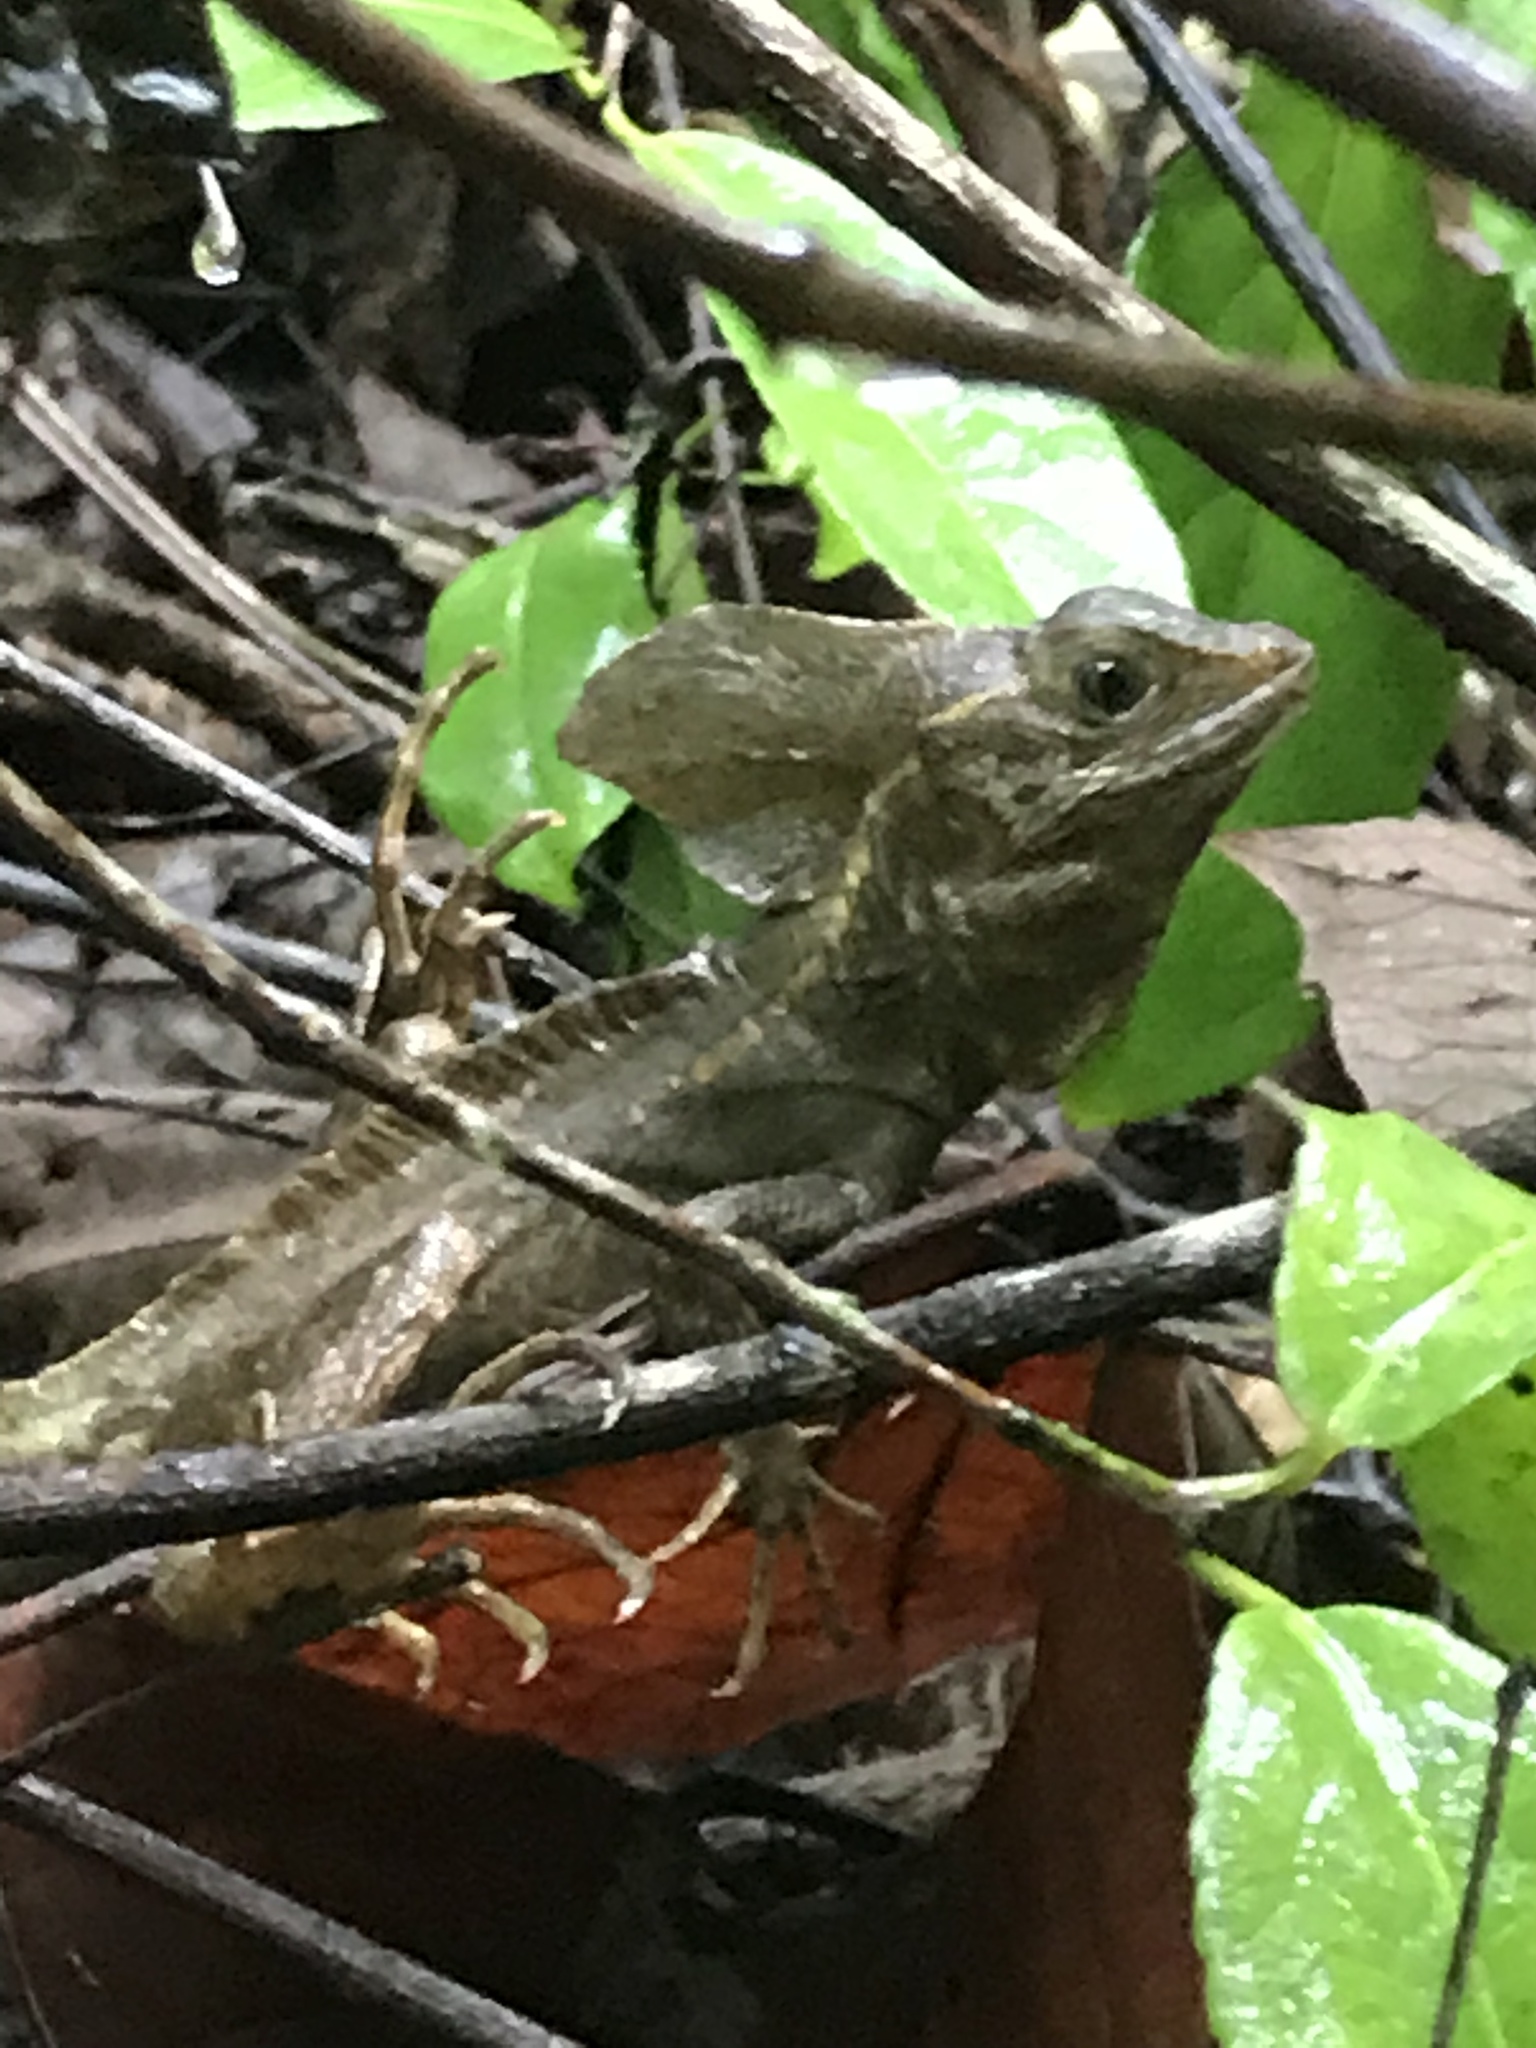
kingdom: Animalia
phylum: Chordata
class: Squamata
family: Corytophanidae
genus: Basiliscus
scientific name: Basiliscus vittatus
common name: Brown basilisk
